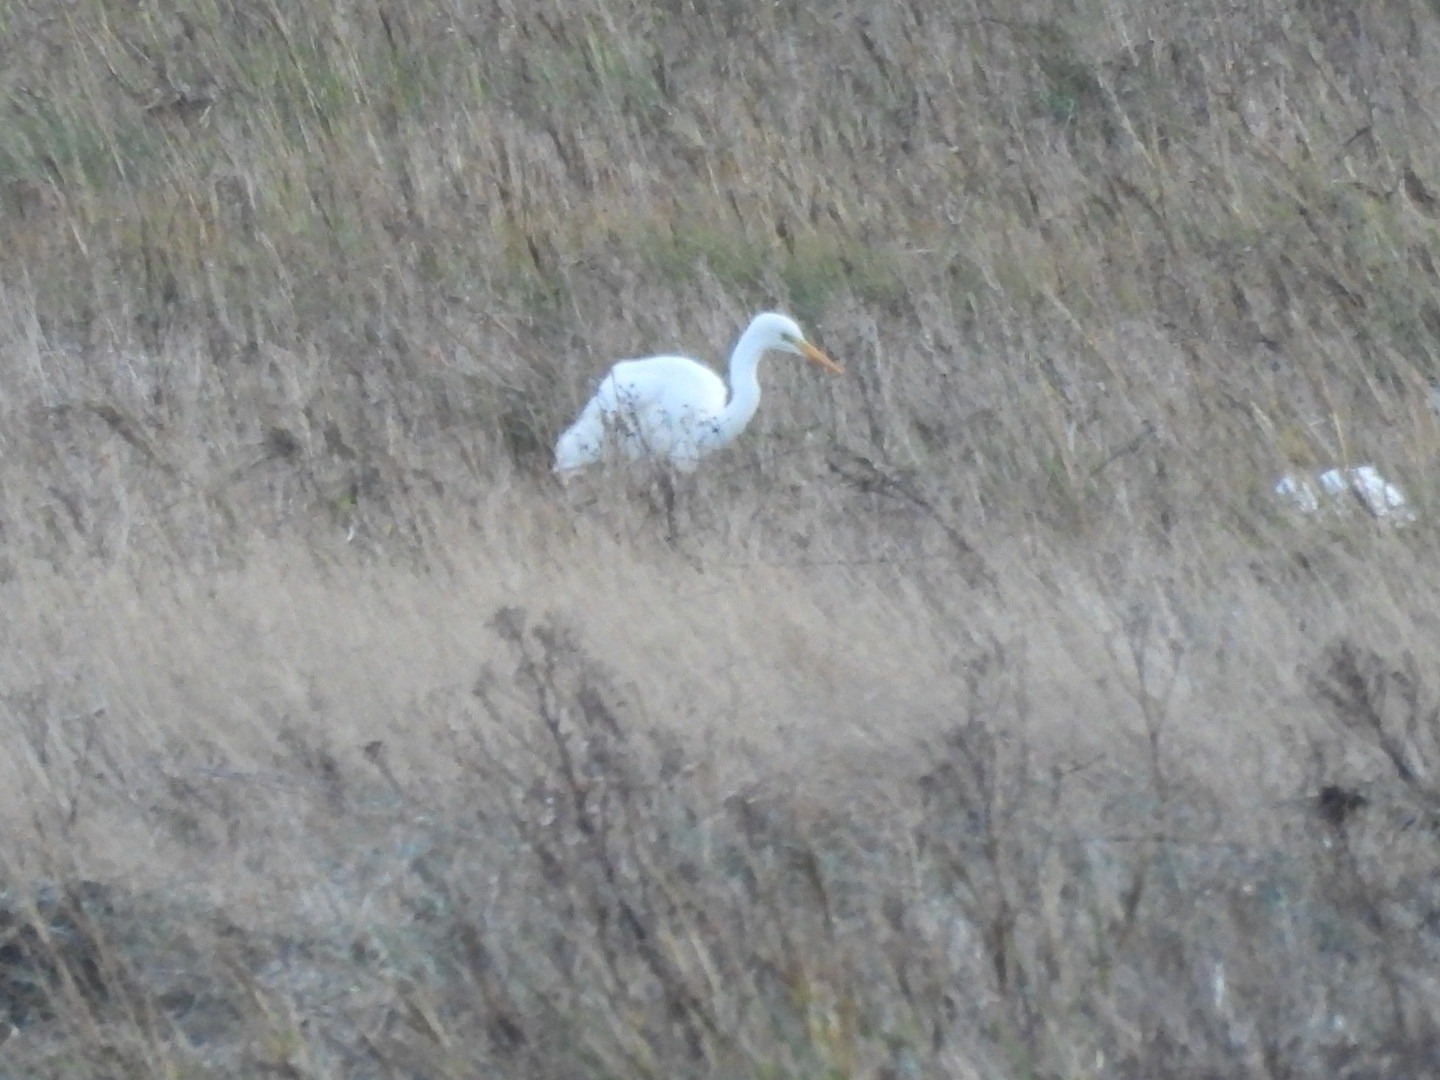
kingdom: Animalia
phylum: Chordata
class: Aves
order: Pelecaniformes
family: Ardeidae
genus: Ardea
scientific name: Ardea alba
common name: Great egret
